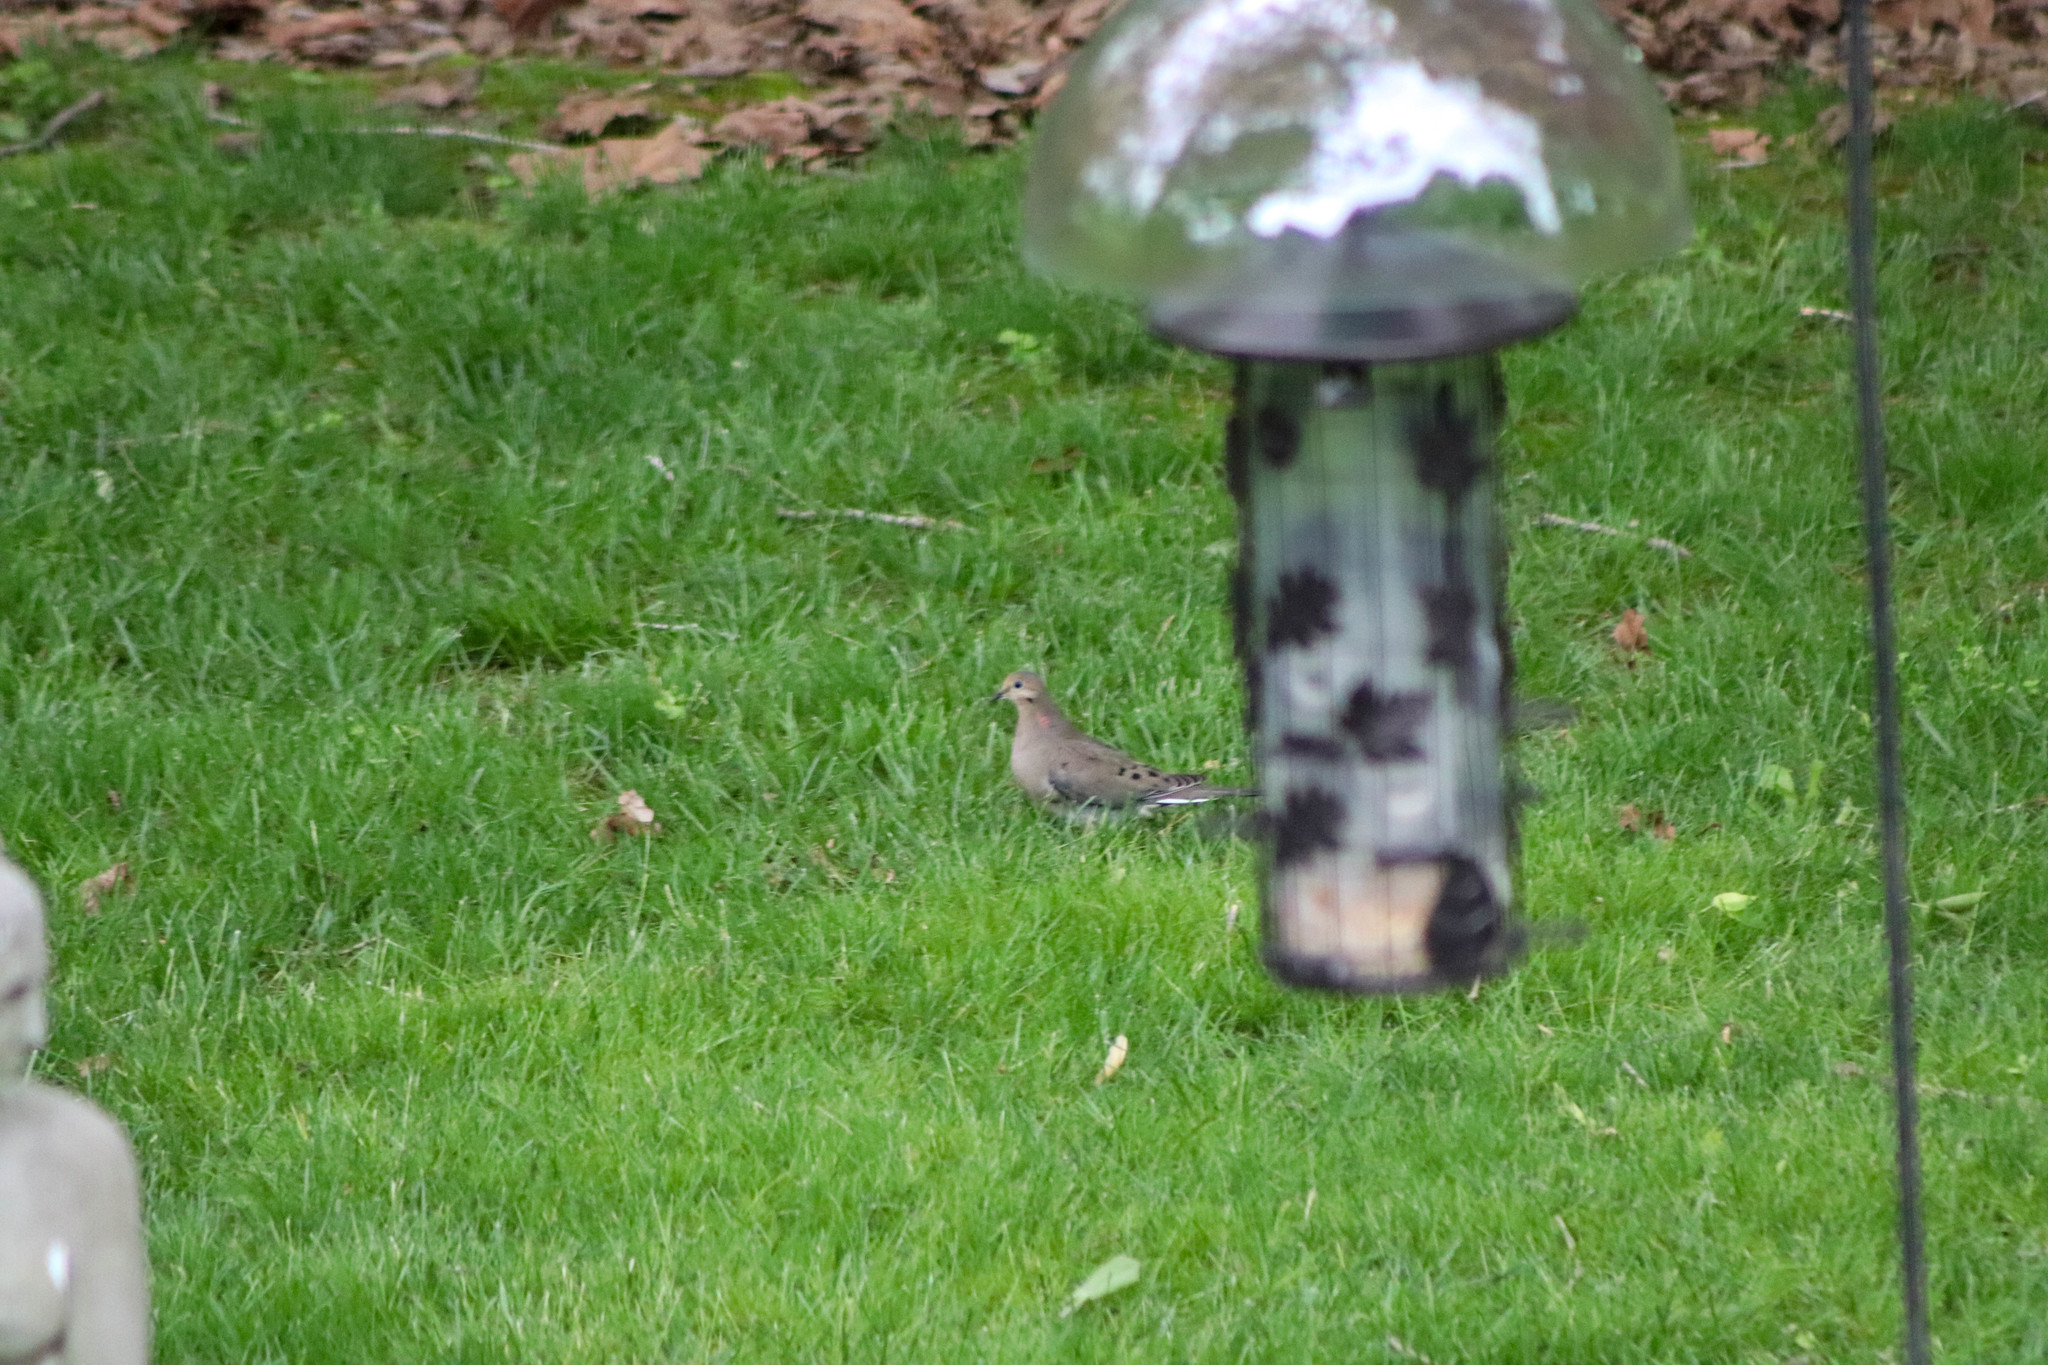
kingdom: Animalia
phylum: Chordata
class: Aves
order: Columbiformes
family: Columbidae
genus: Zenaida
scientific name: Zenaida macroura
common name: Mourning dove
